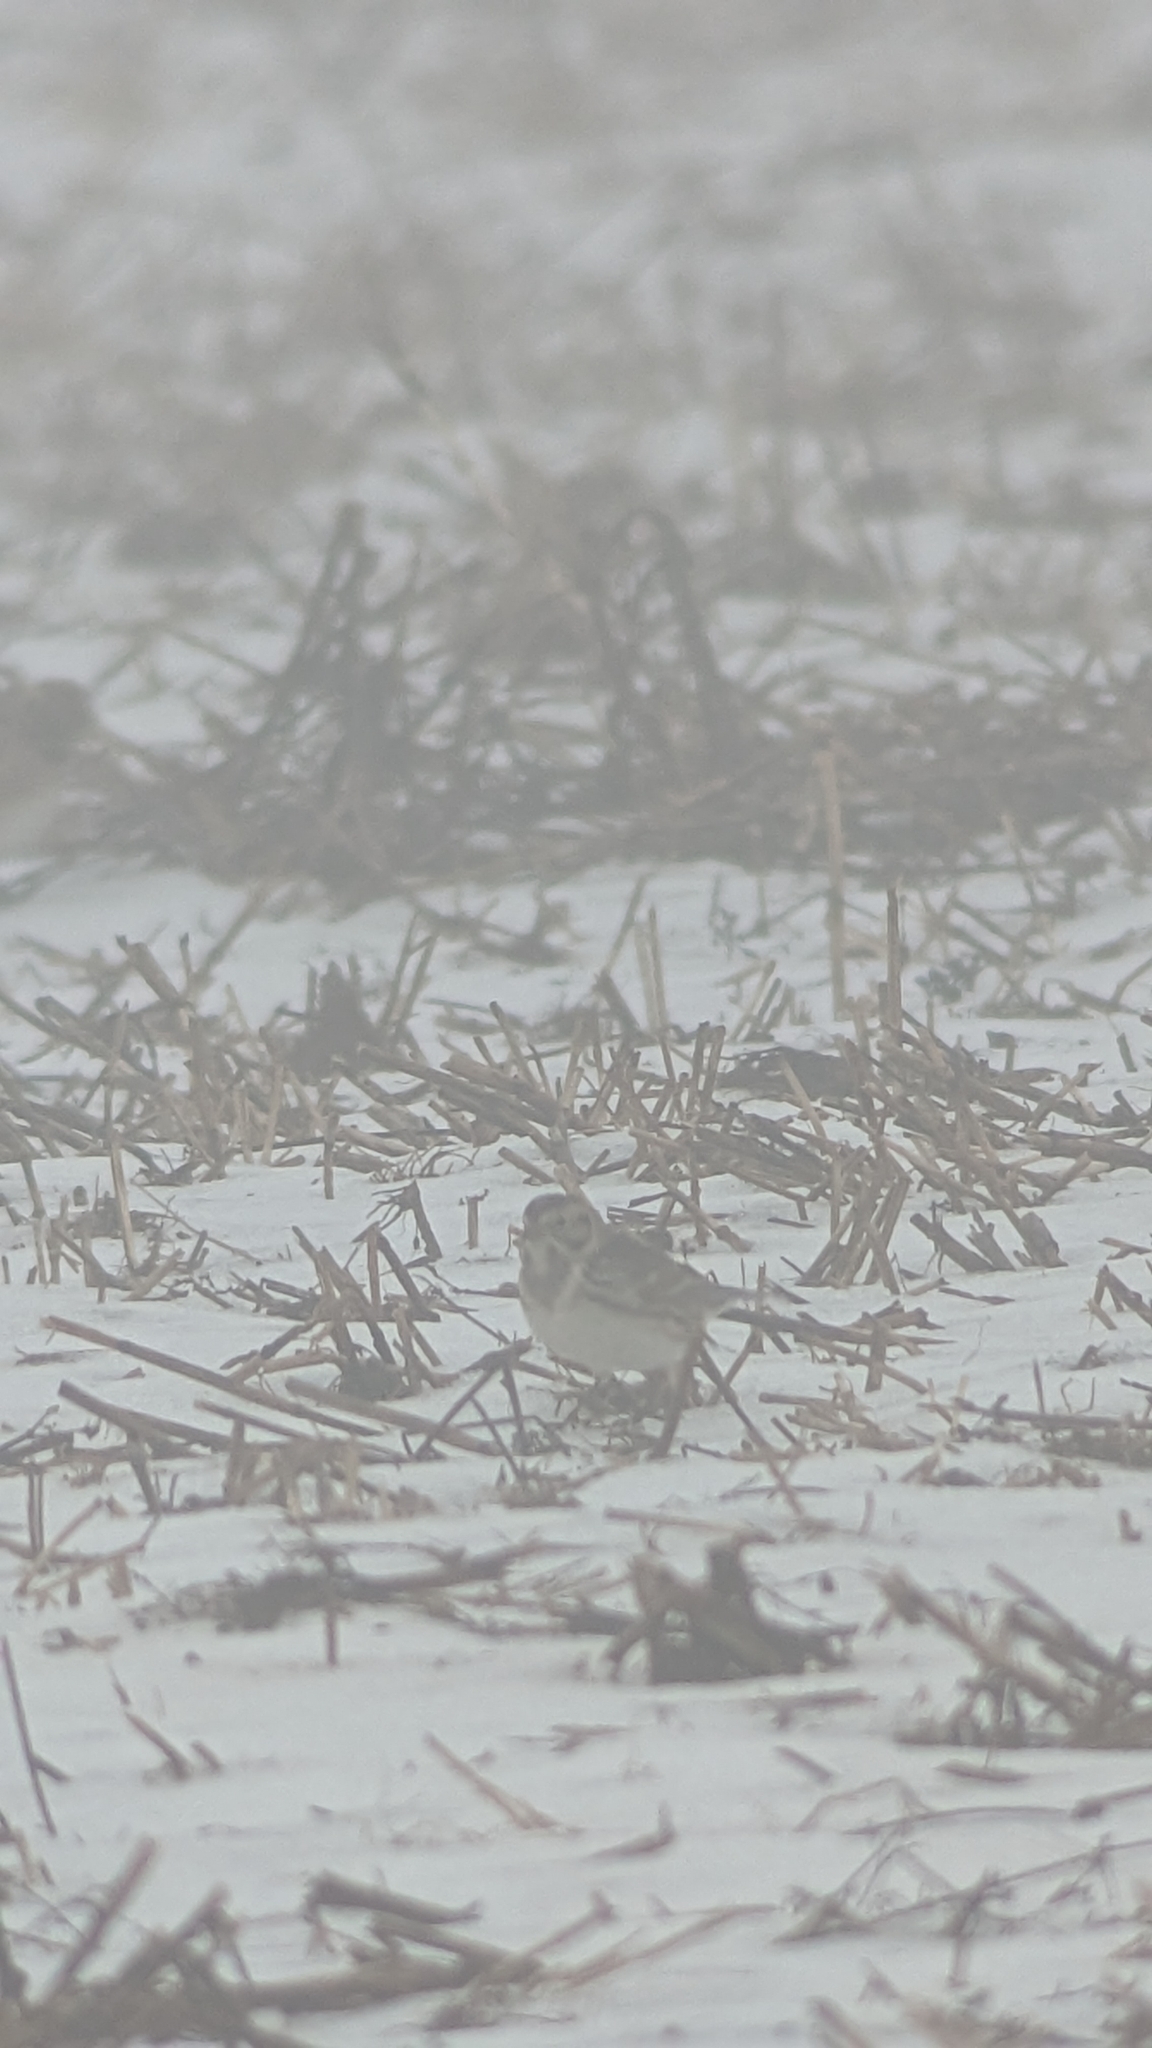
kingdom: Animalia
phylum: Chordata
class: Aves
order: Passeriformes
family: Calcariidae
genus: Calcarius
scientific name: Calcarius lapponicus
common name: Lapland longspur
